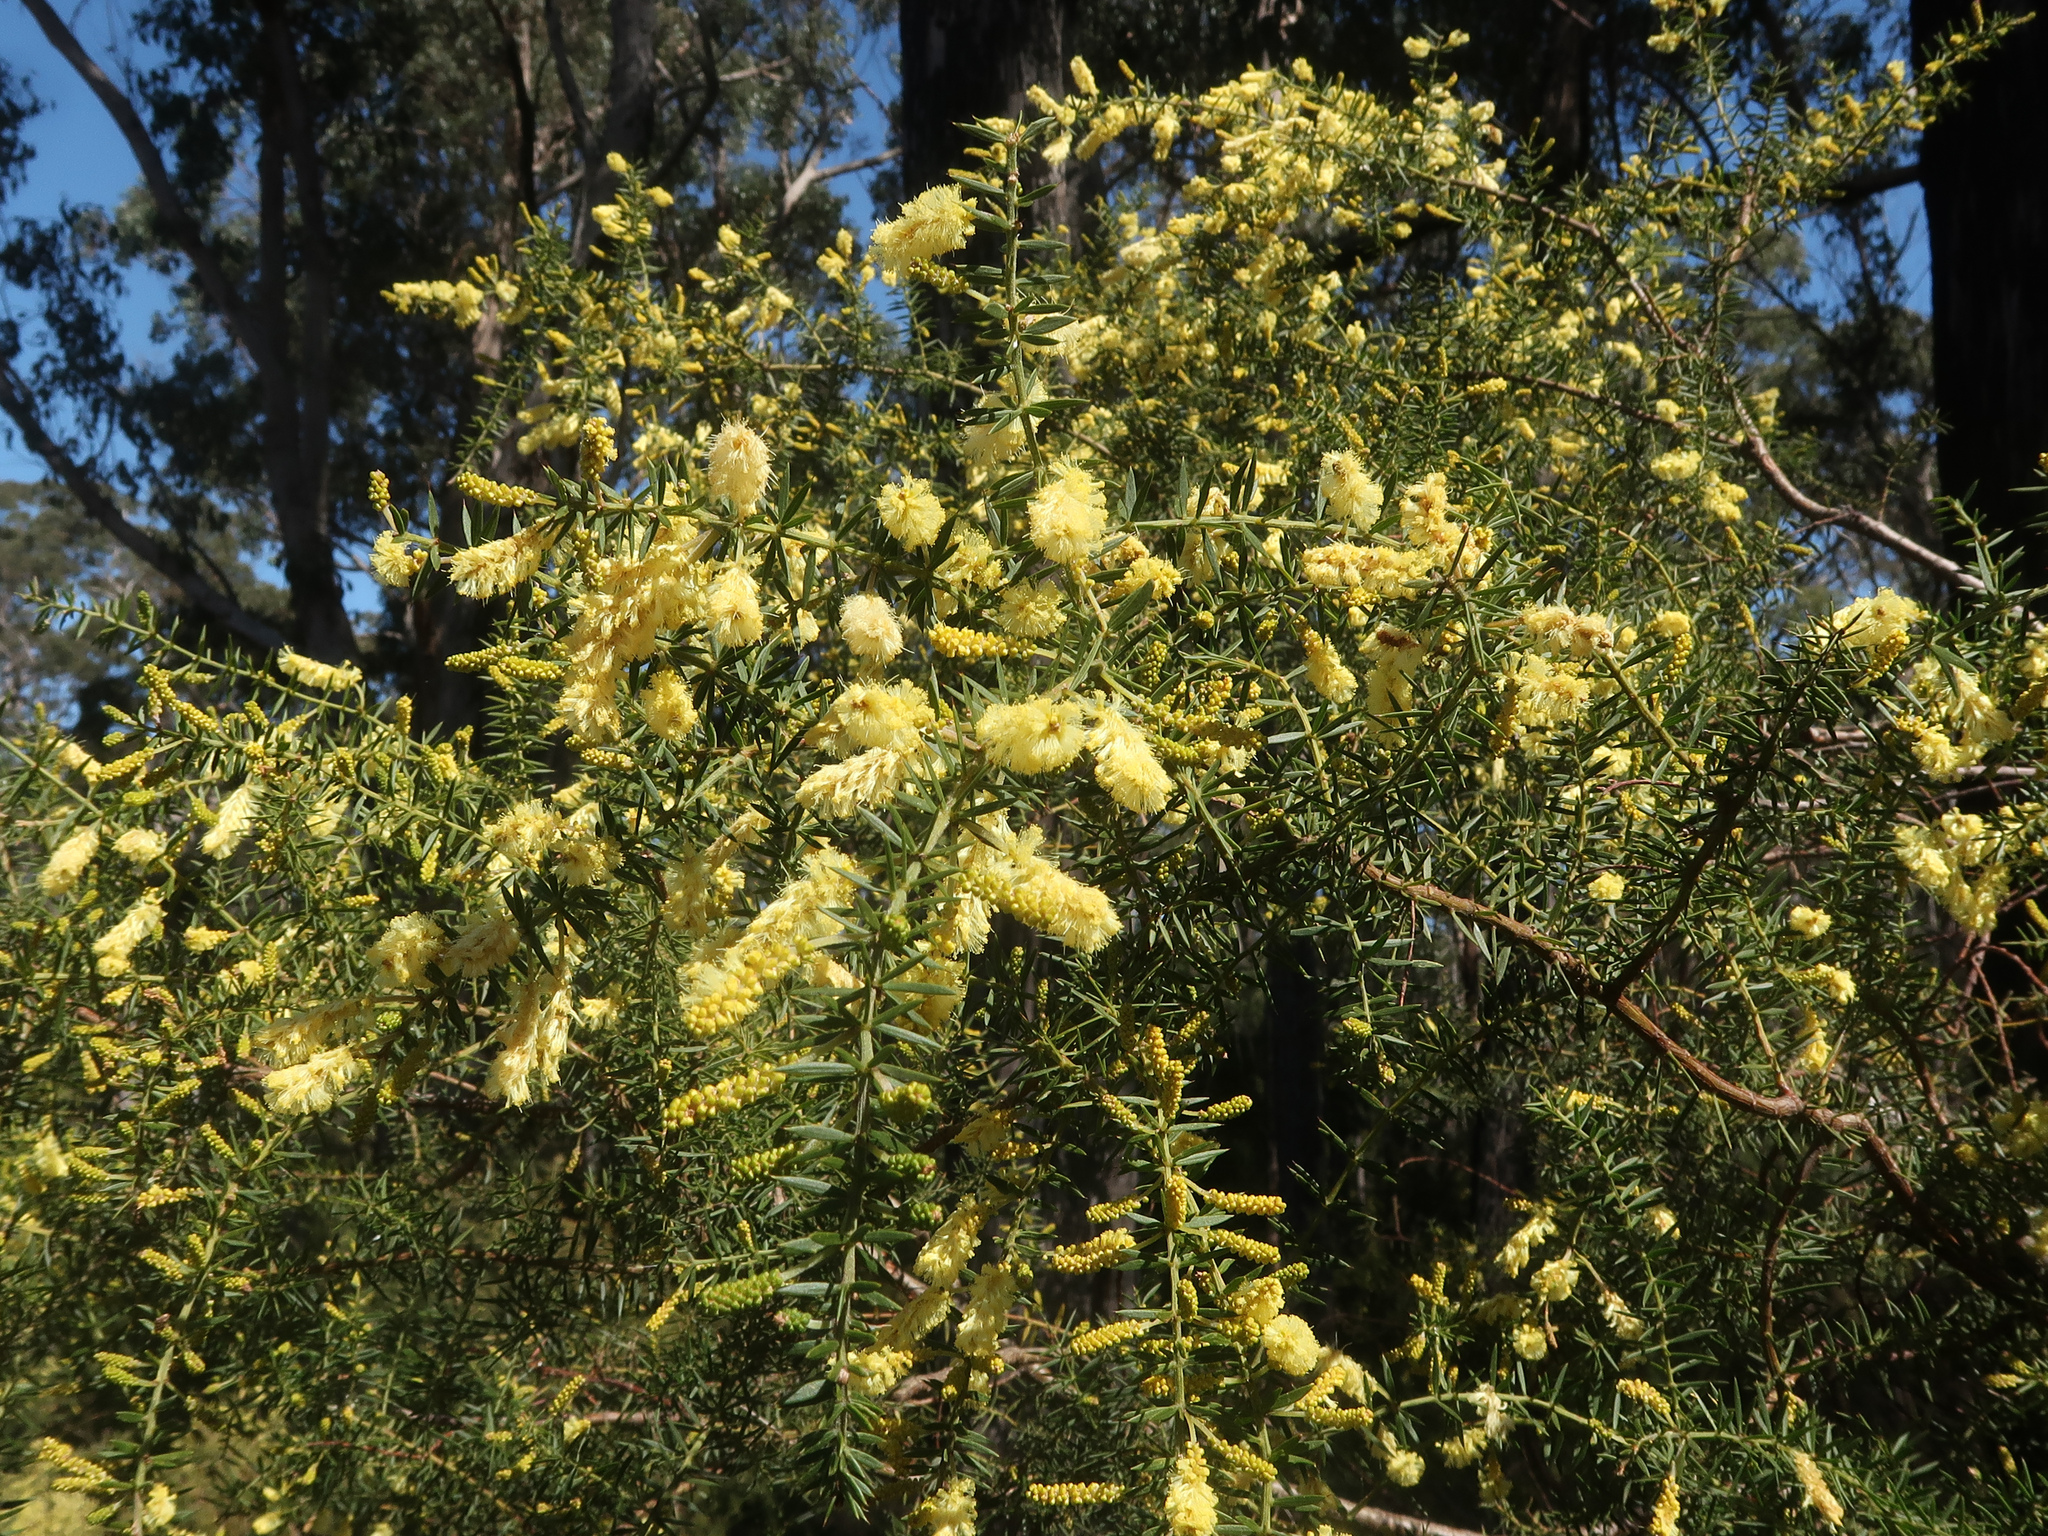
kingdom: Plantae
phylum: Tracheophyta
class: Magnoliopsida
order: Fabales
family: Fabaceae
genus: Acacia
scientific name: Acacia verticillata
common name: Prickly moses
